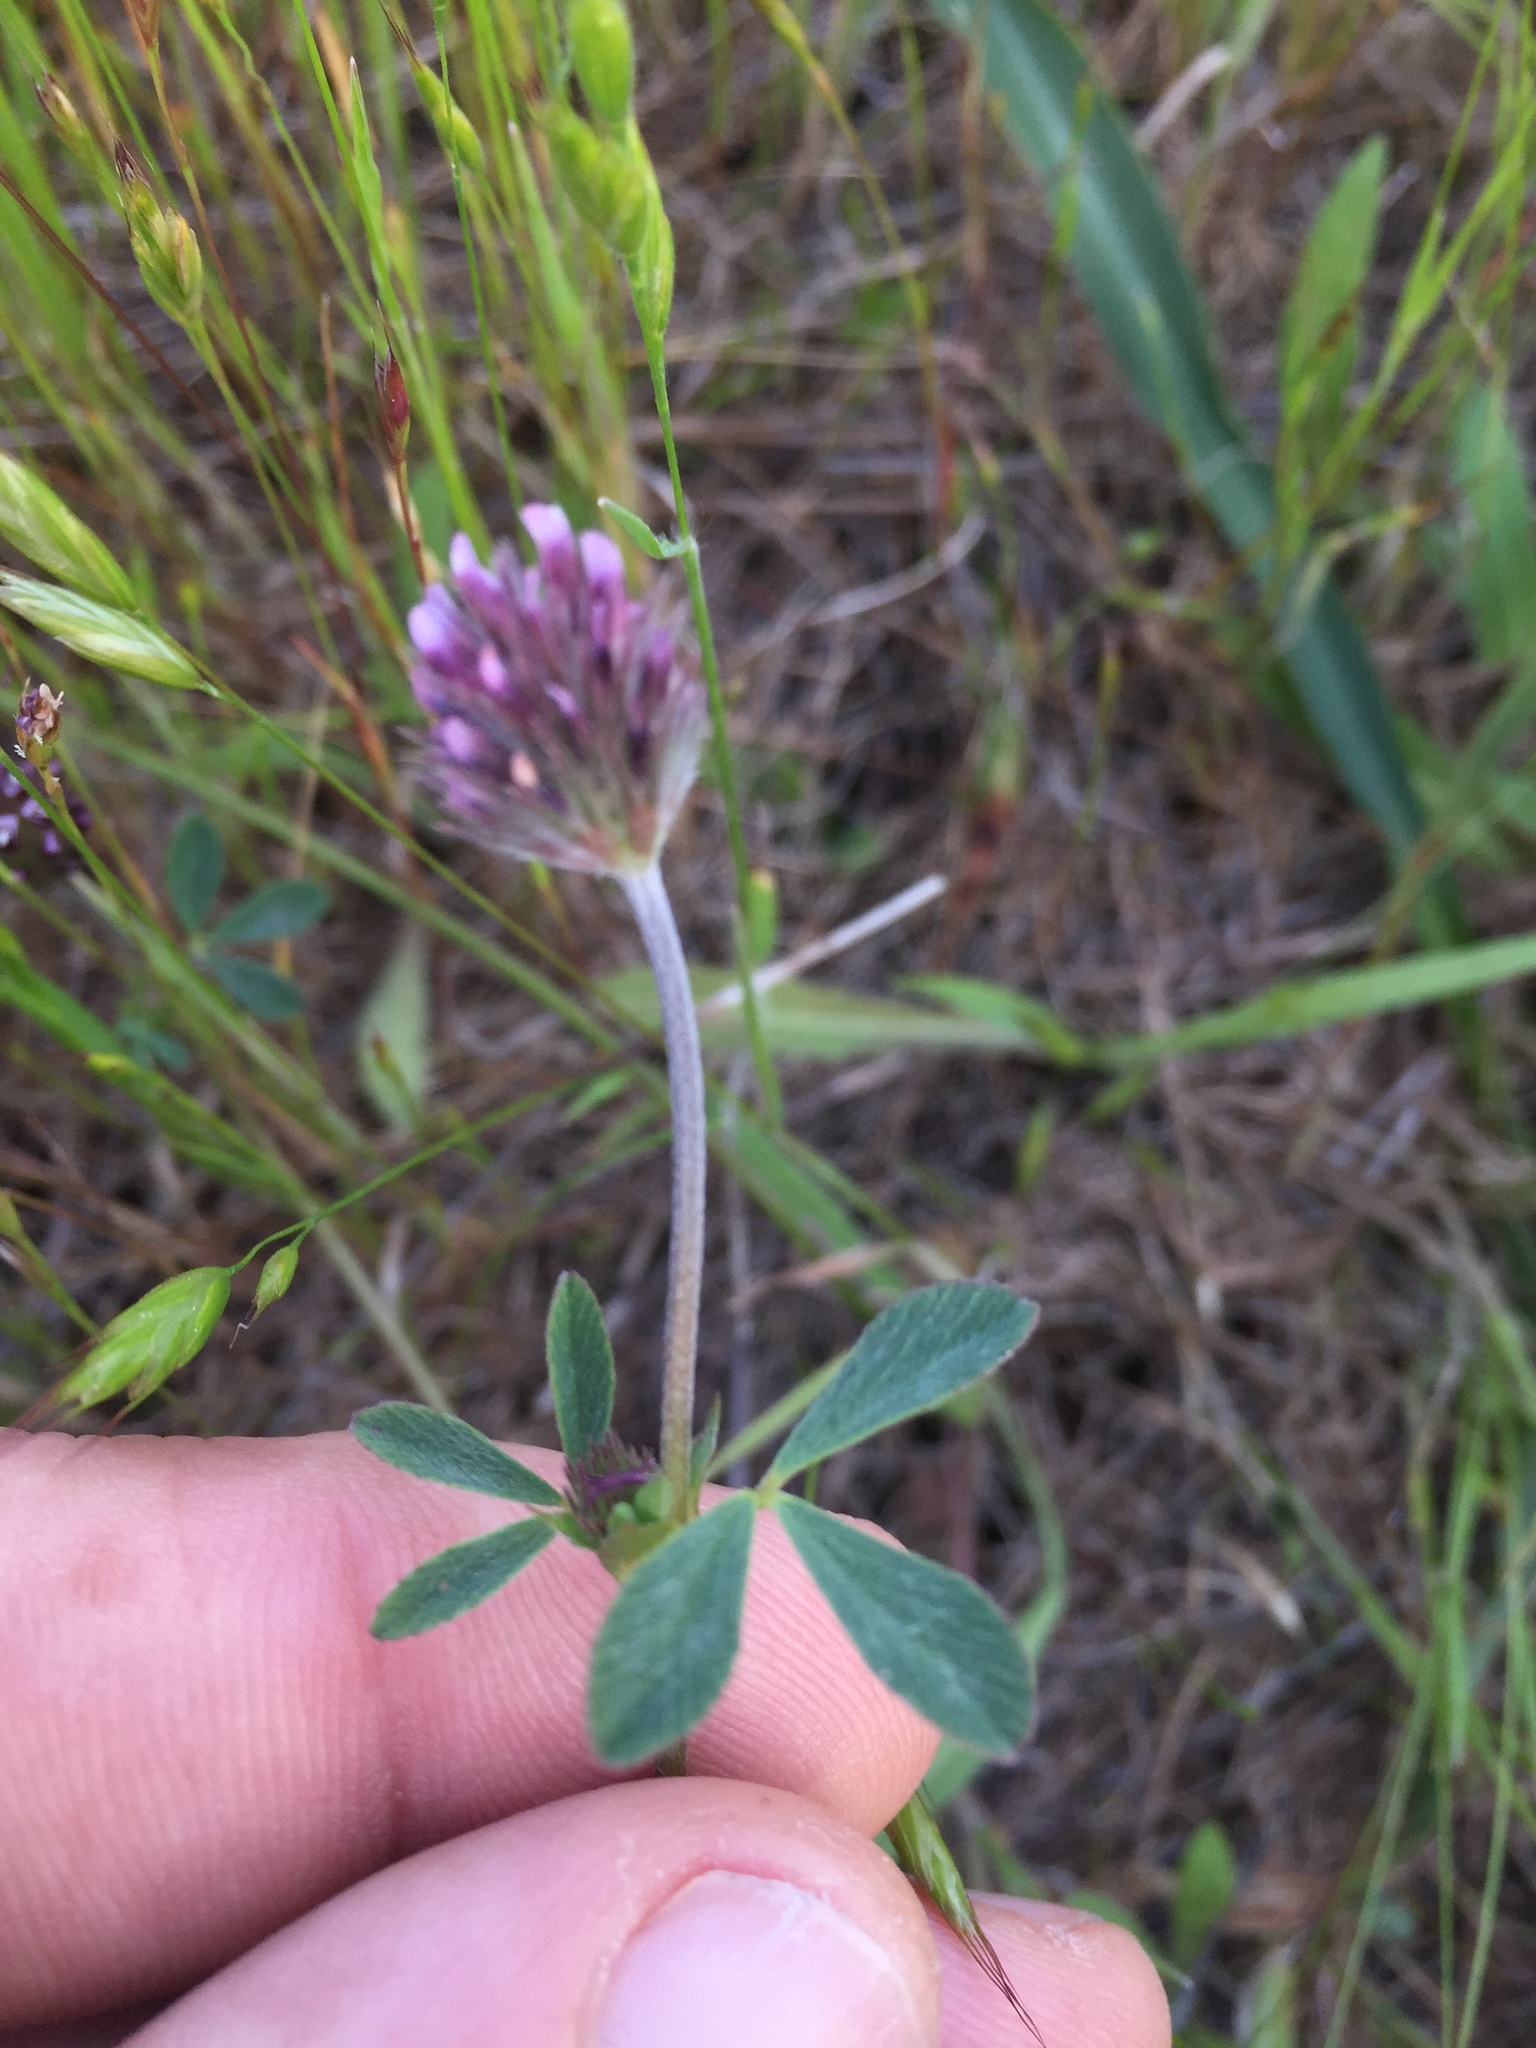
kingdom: Plantae
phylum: Tracheophyta
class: Magnoliopsida
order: Fabales
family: Fabaceae
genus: Trifolium
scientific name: Trifolium albopurpureum
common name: Rancheria clover
